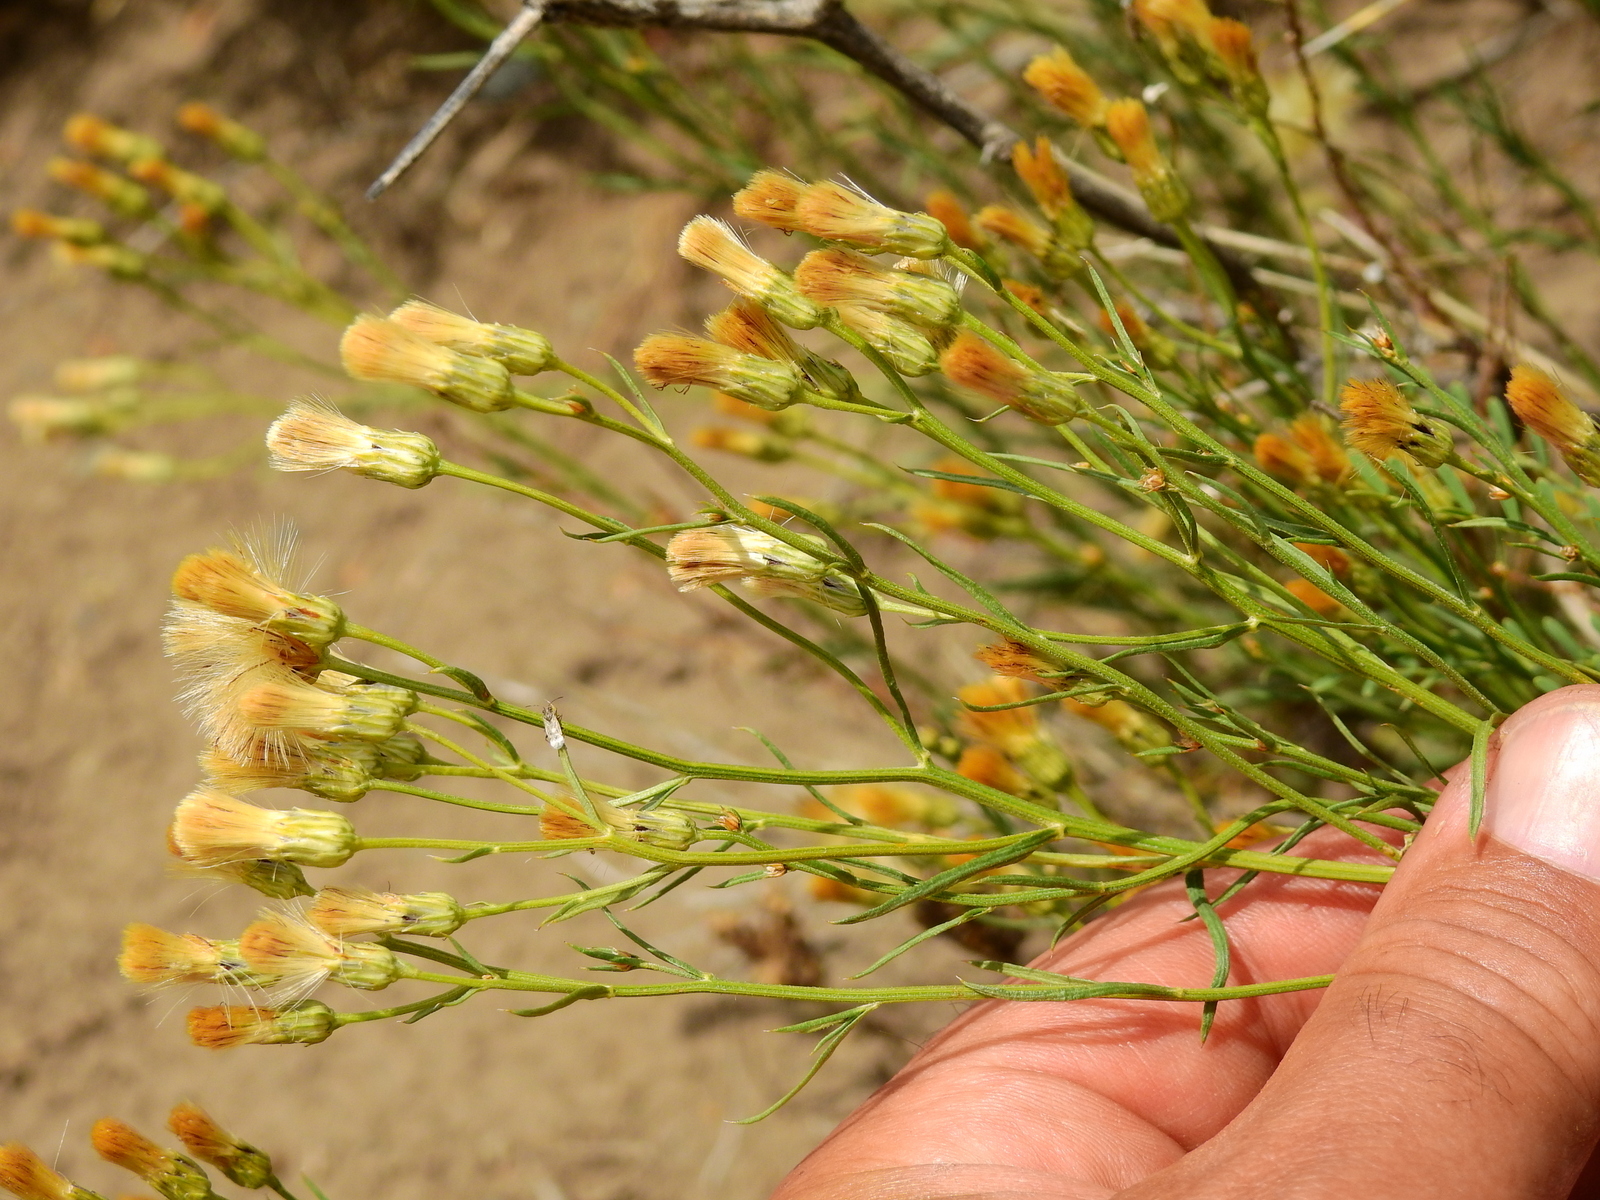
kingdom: Plantae
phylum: Tracheophyta
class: Magnoliopsida
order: Asterales
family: Asteraceae
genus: Baccharis
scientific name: Baccharis darwinii
